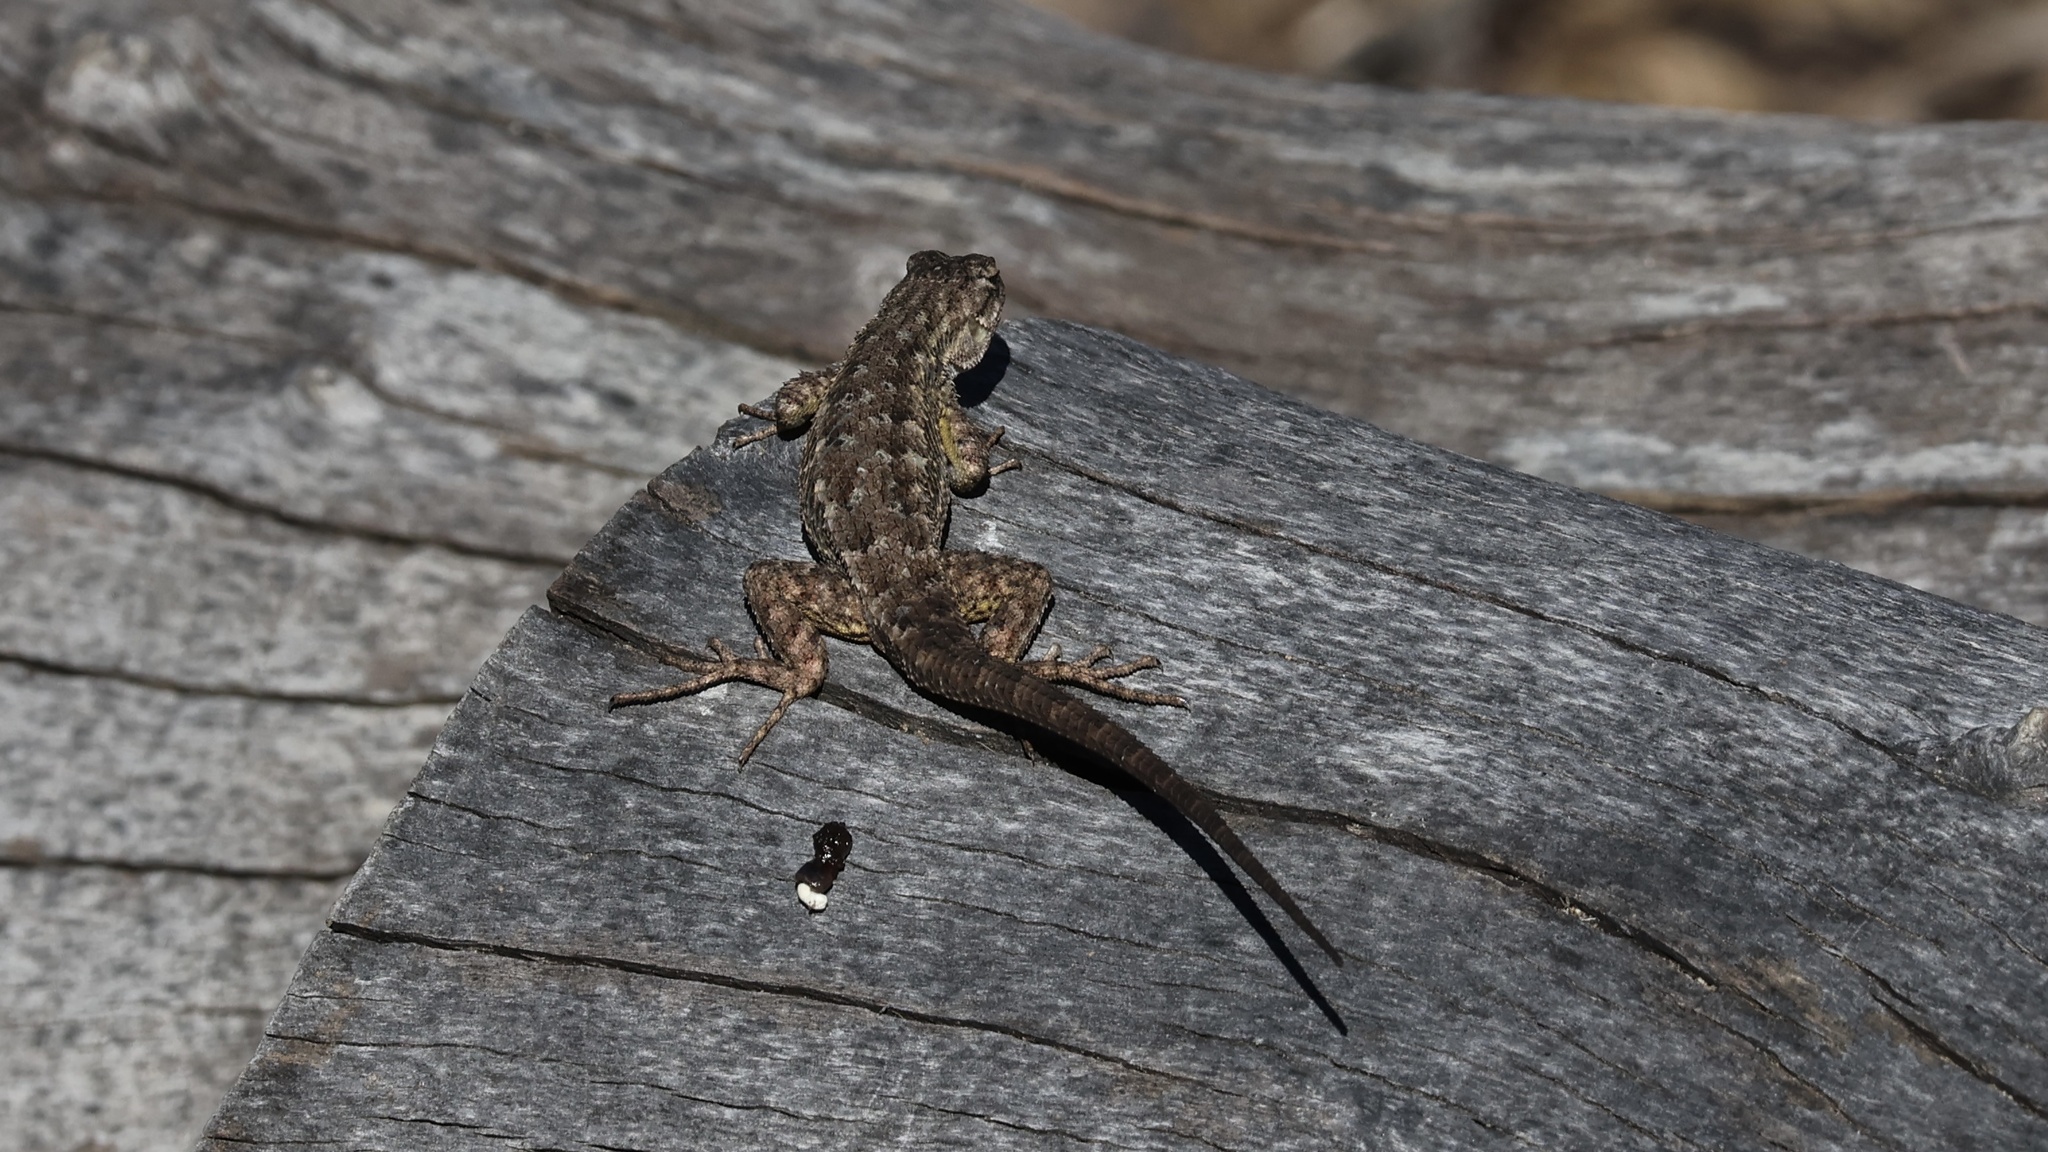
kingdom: Animalia
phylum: Chordata
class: Squamata
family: Phrynosomatidae
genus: Sceloporus
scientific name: Sceloporus occidentalis
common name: Western fence lizard
